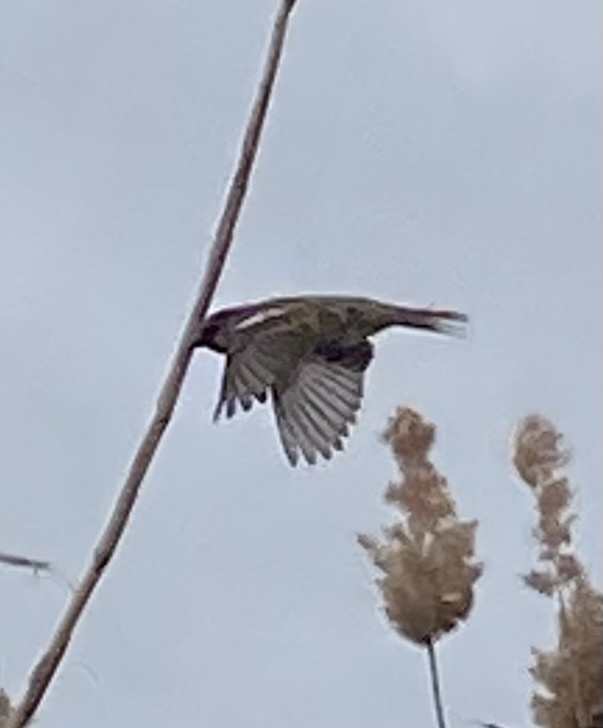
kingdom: Animalia
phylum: Chordata
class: Aves
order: Passeriformes
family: Passeridae
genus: Passer
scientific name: Passer domesticus
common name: House sparrow
